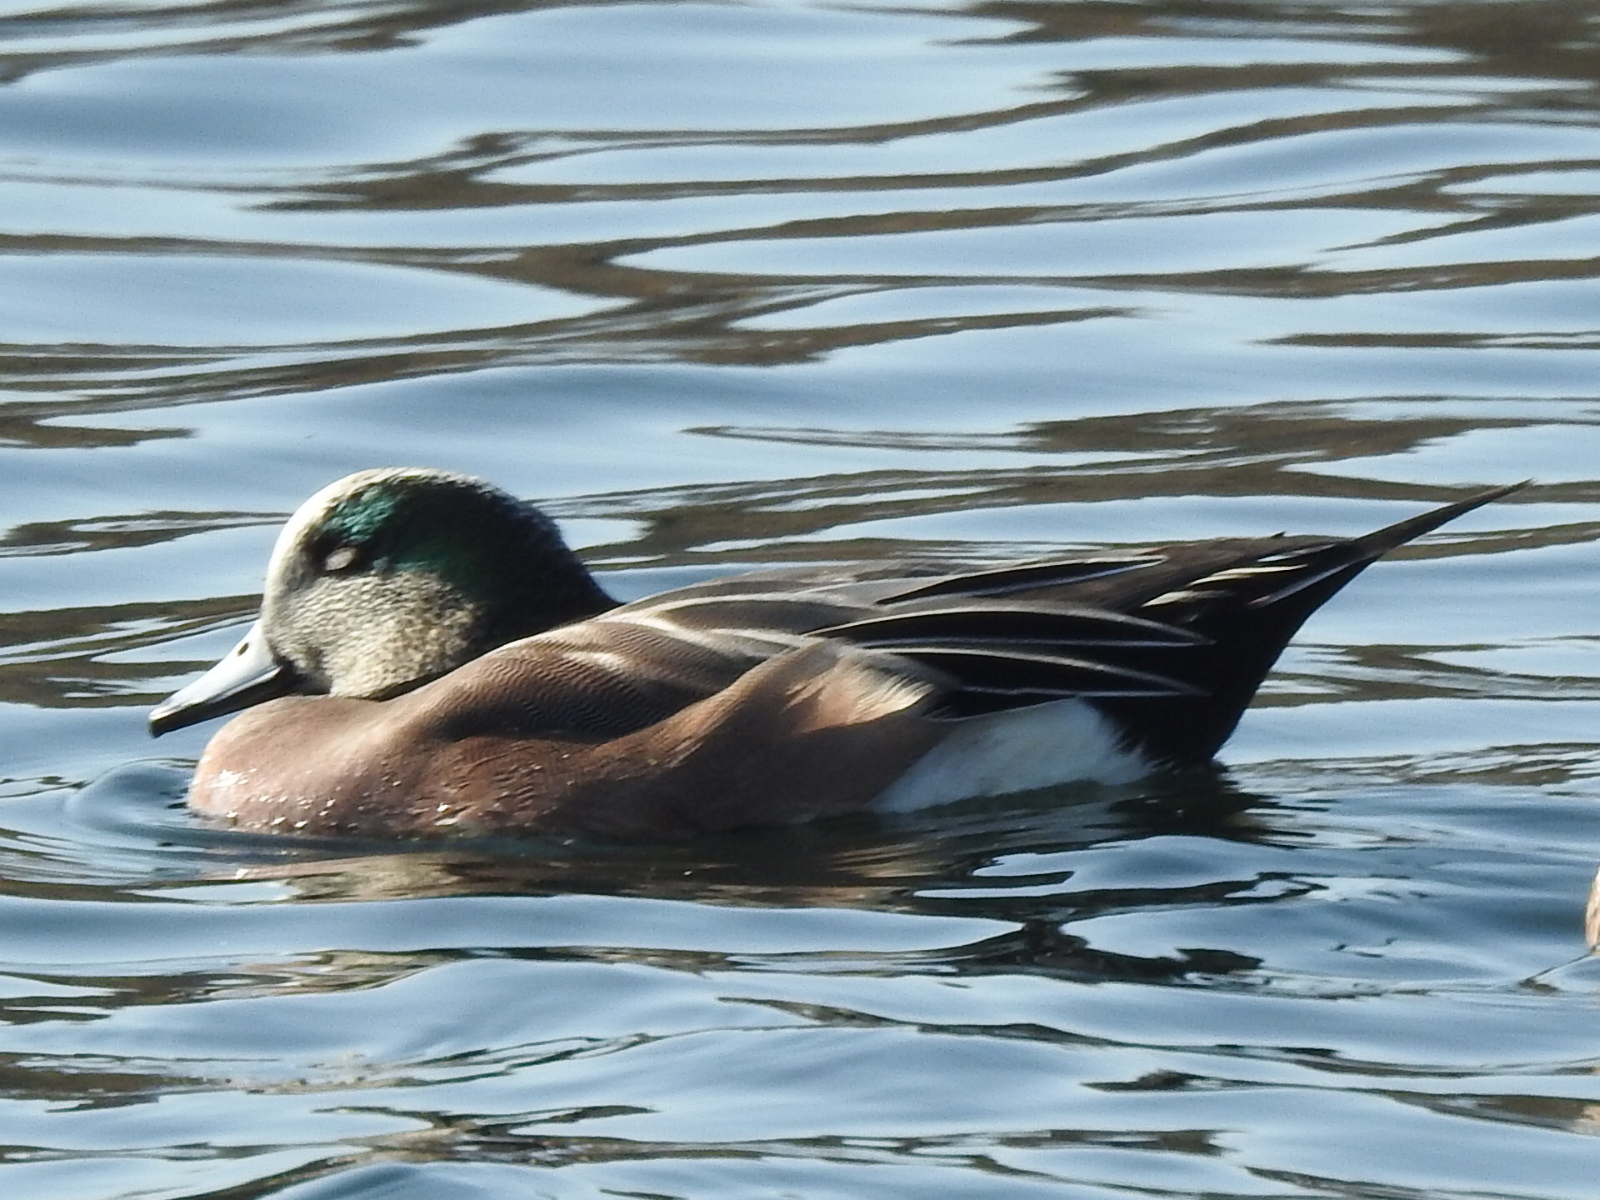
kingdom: Animalia
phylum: Chordata
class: Aves
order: Anseriformes
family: Anatidae
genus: Mareca
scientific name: Mareca americana
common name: American wigeon
